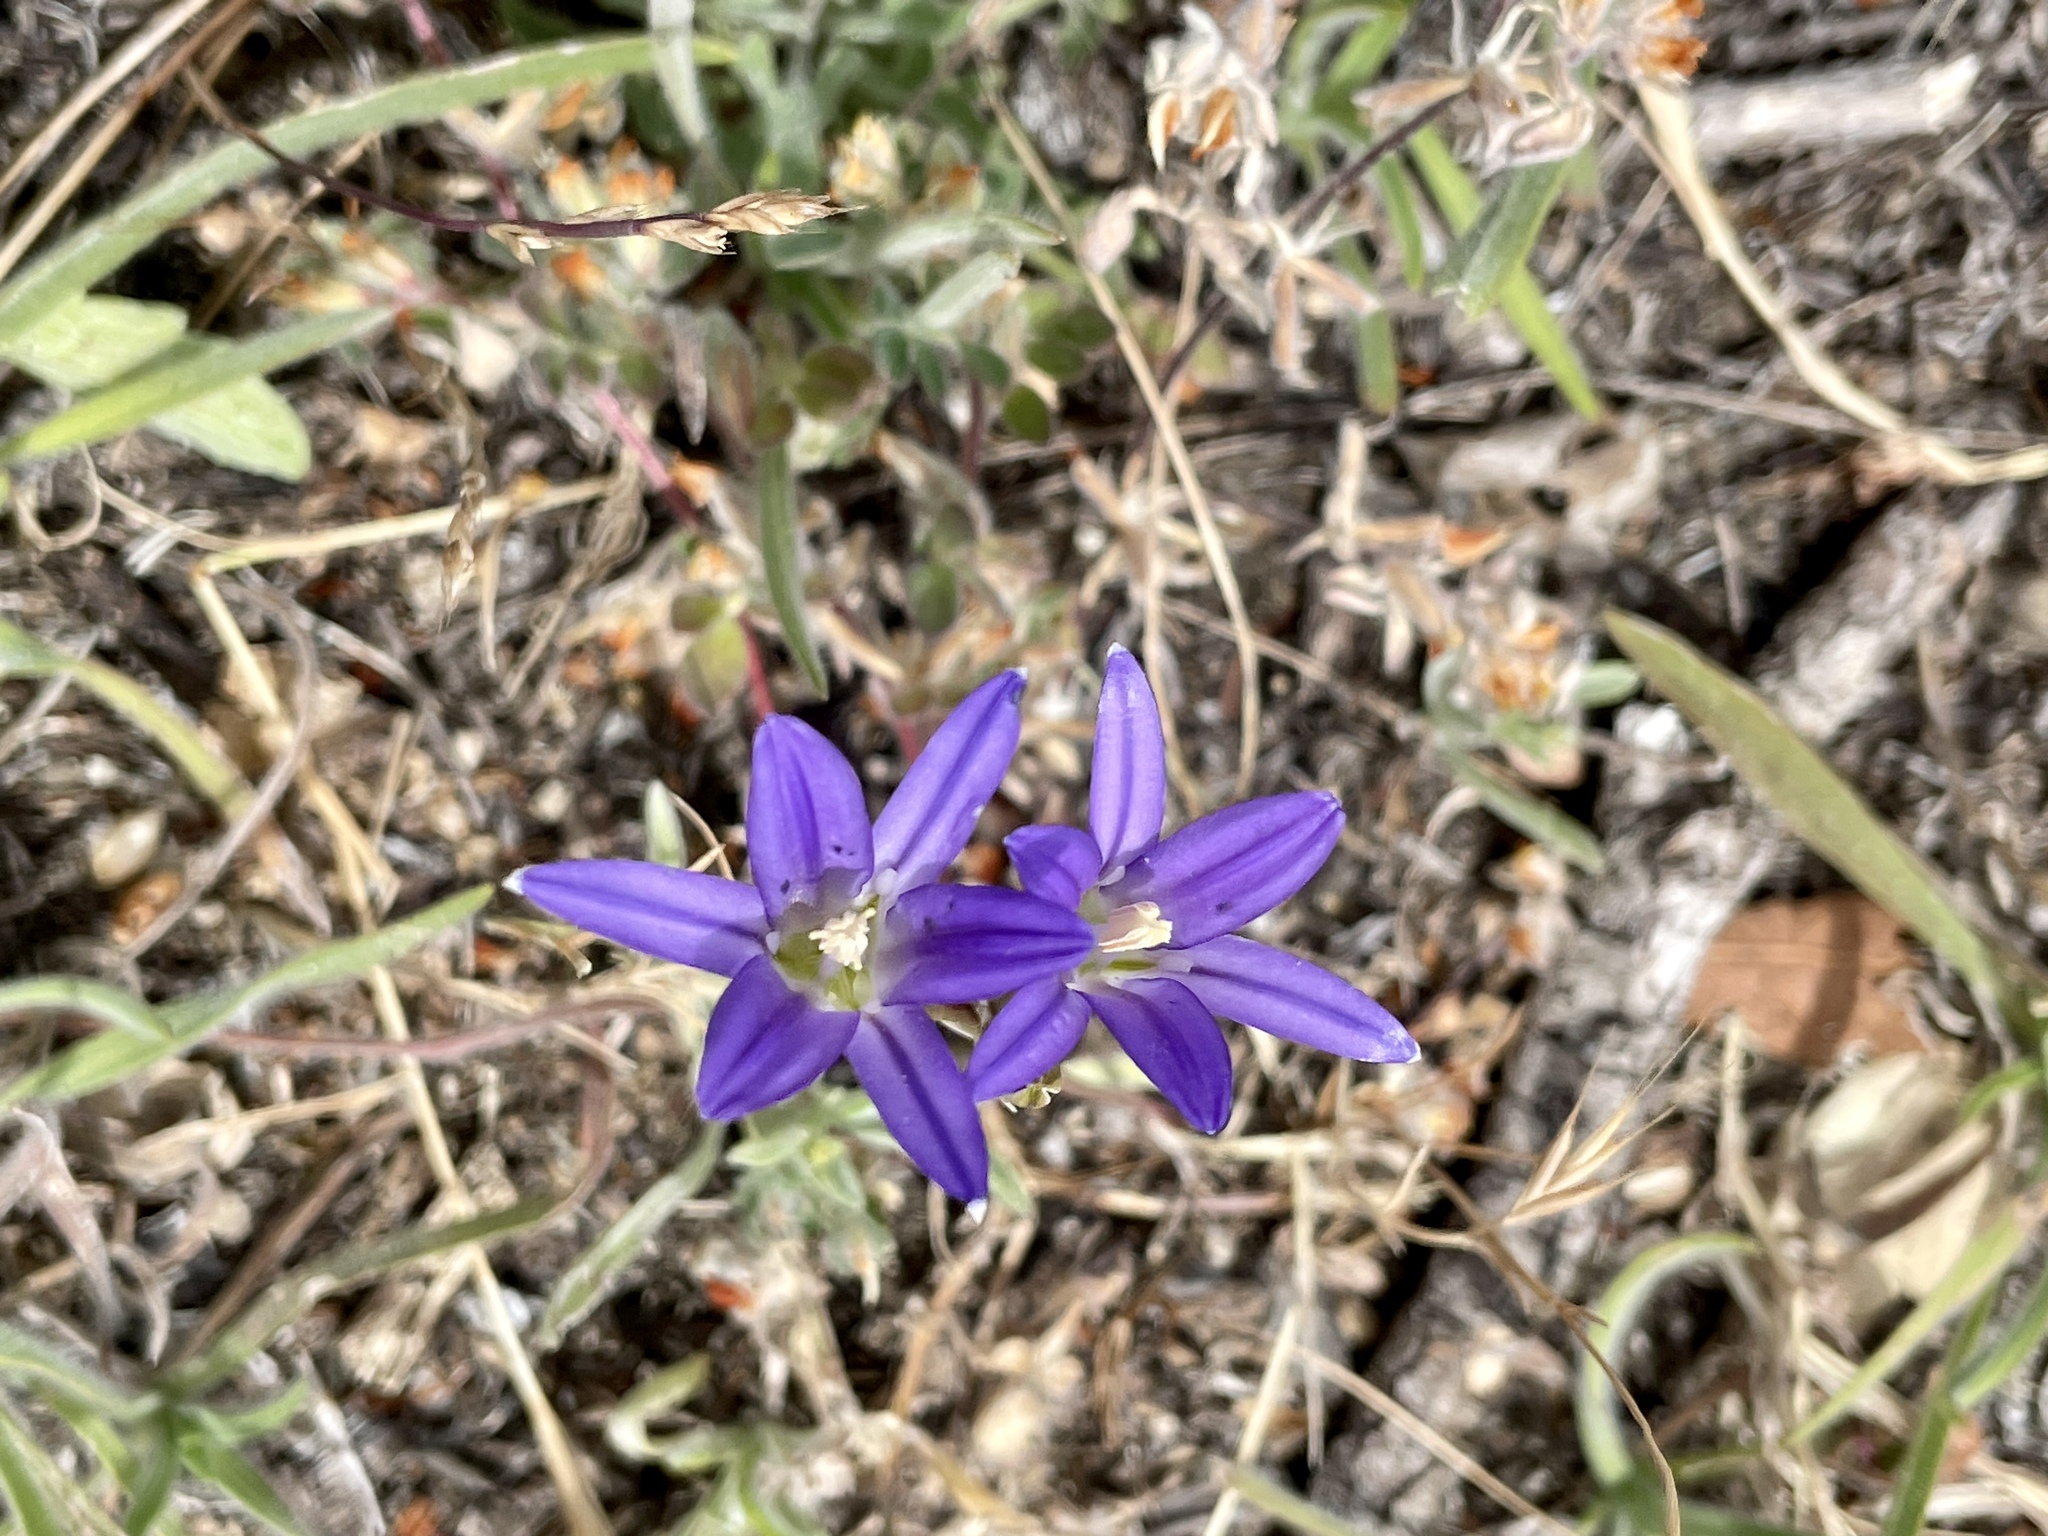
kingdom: Plantae
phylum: Tracheophyta
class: Liliopsida
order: Asparagales
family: Asparagaceae
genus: Brodiaea
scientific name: Brodiaea elegans
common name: Elegant cluster-lily
